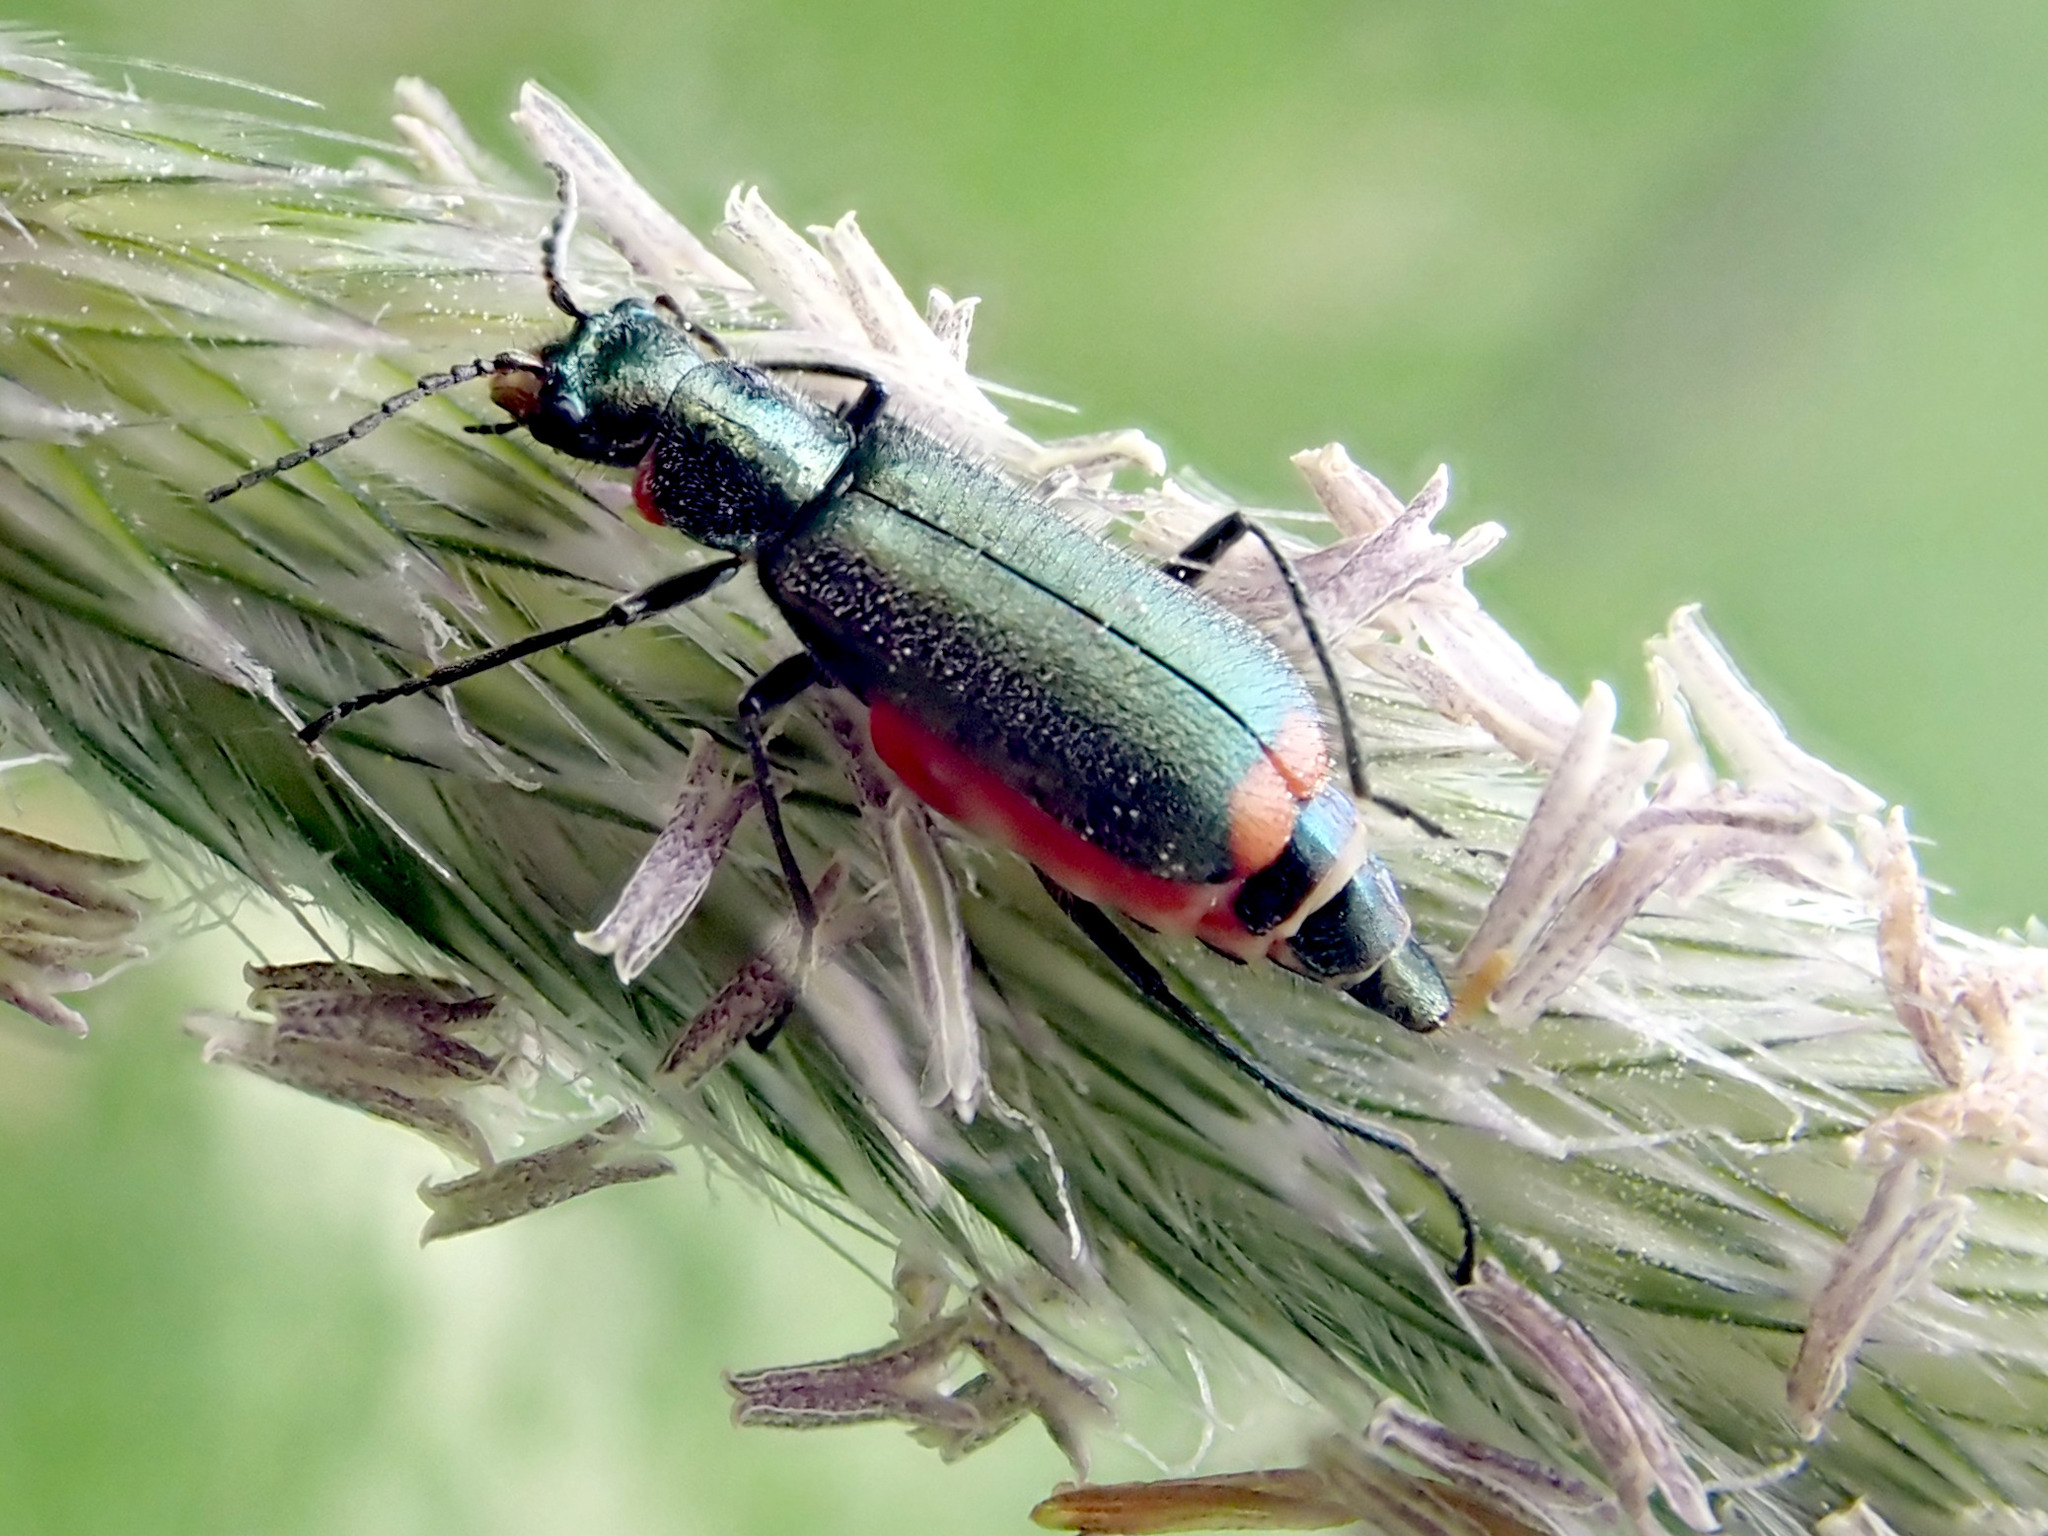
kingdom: Animalia
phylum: Arthropoda
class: Insecta
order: Coleoptera
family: Melyridae
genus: Malachius
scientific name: Malachius bipustulatus
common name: Malachite beetle
